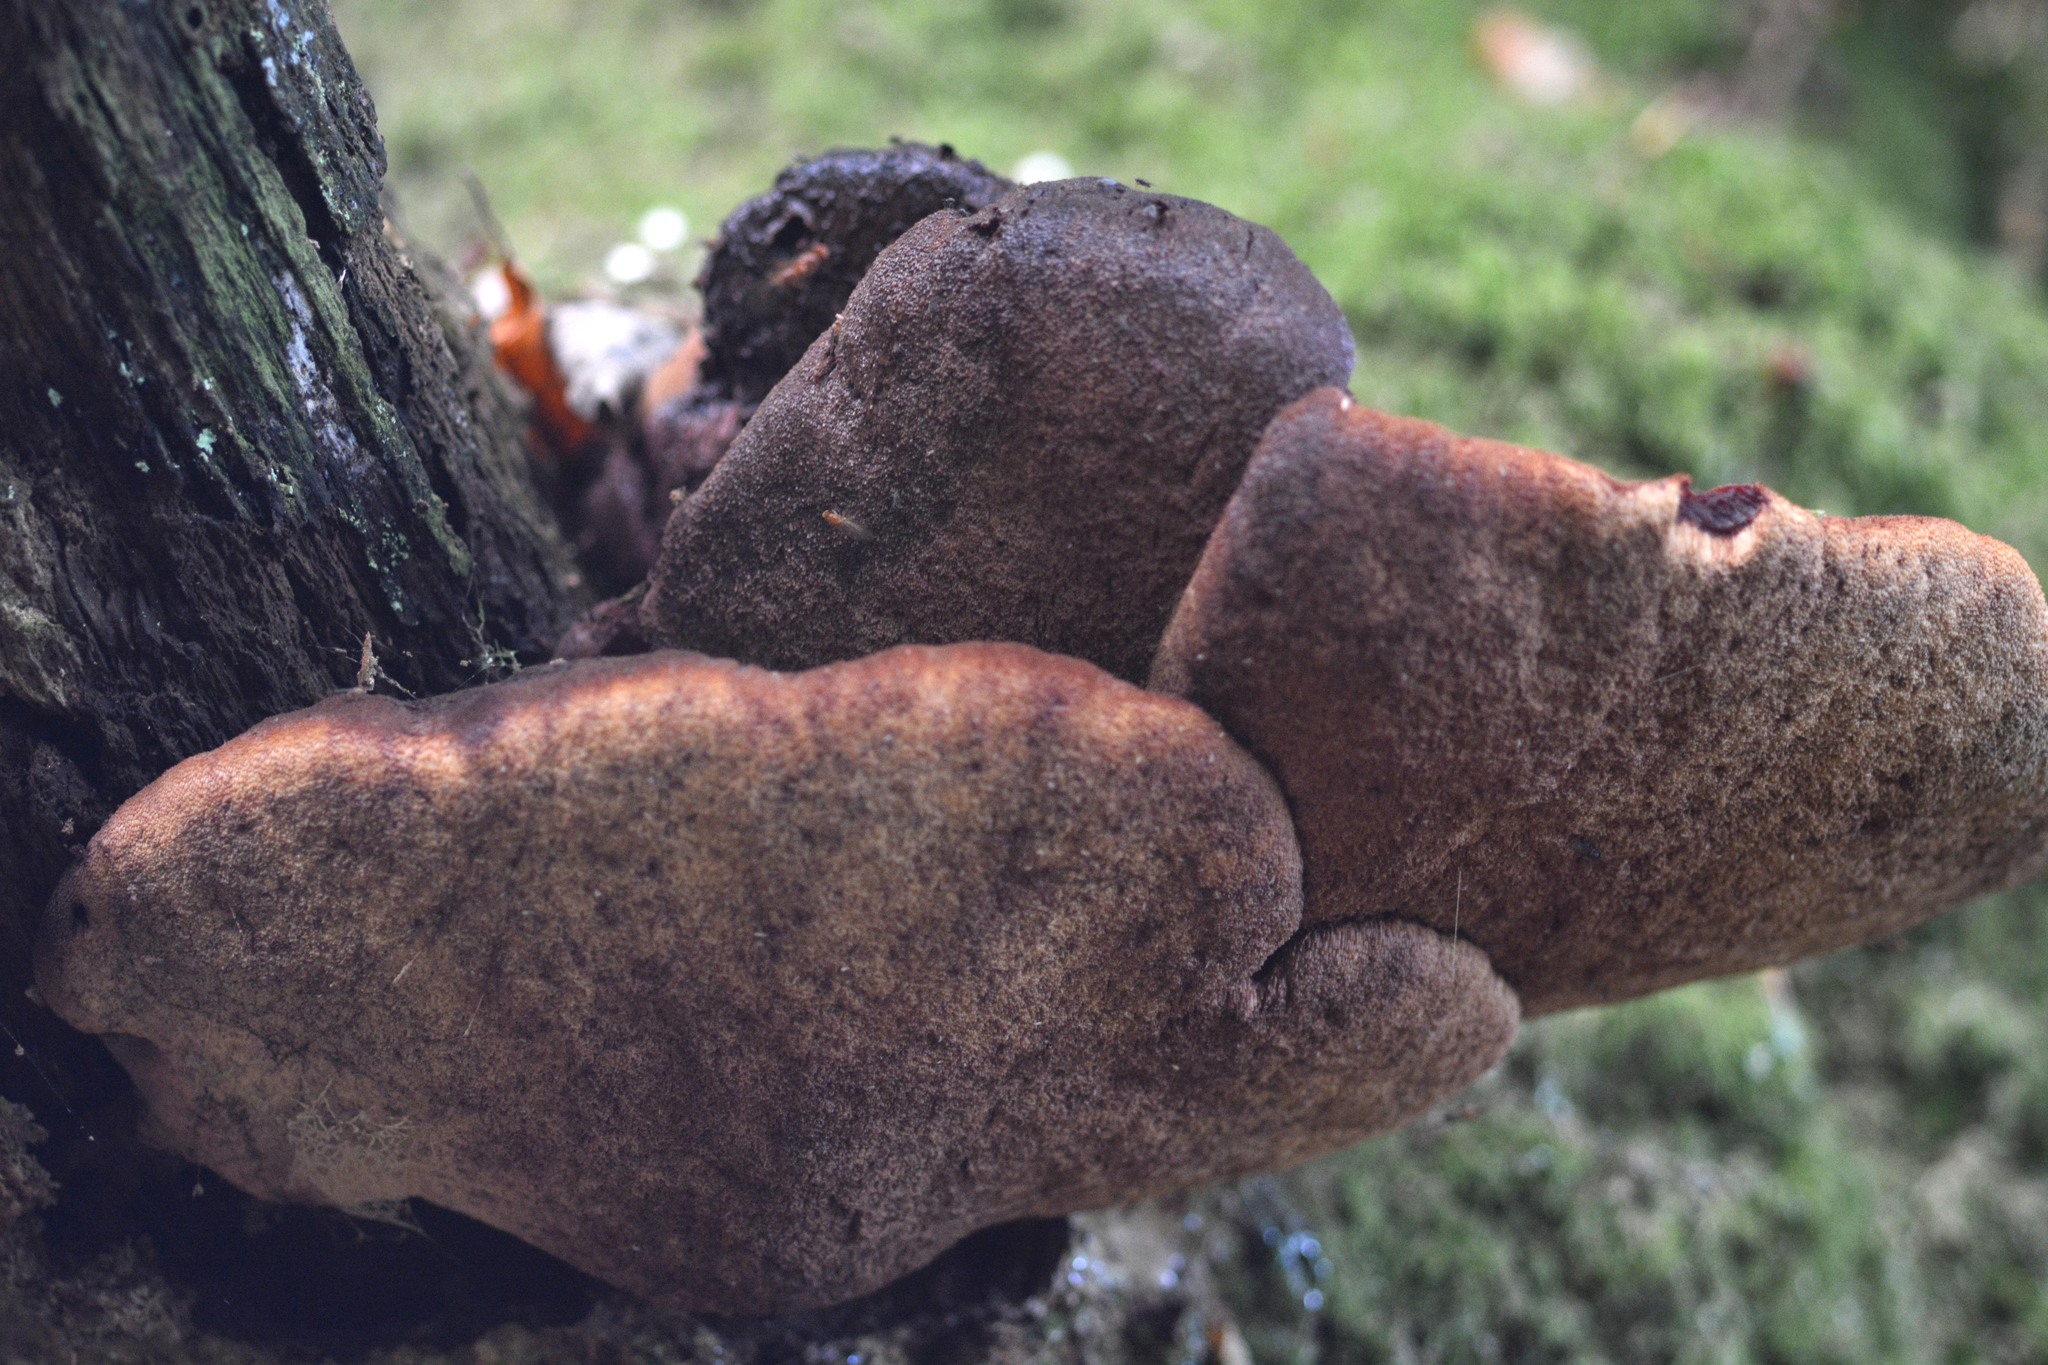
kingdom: Fungi
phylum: Basidiomycota
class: Agaricomycetes
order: Agaricales
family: Fistulinaceae
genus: Fistulina
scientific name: Fistulina hepatica
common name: Beef-steak fungus
